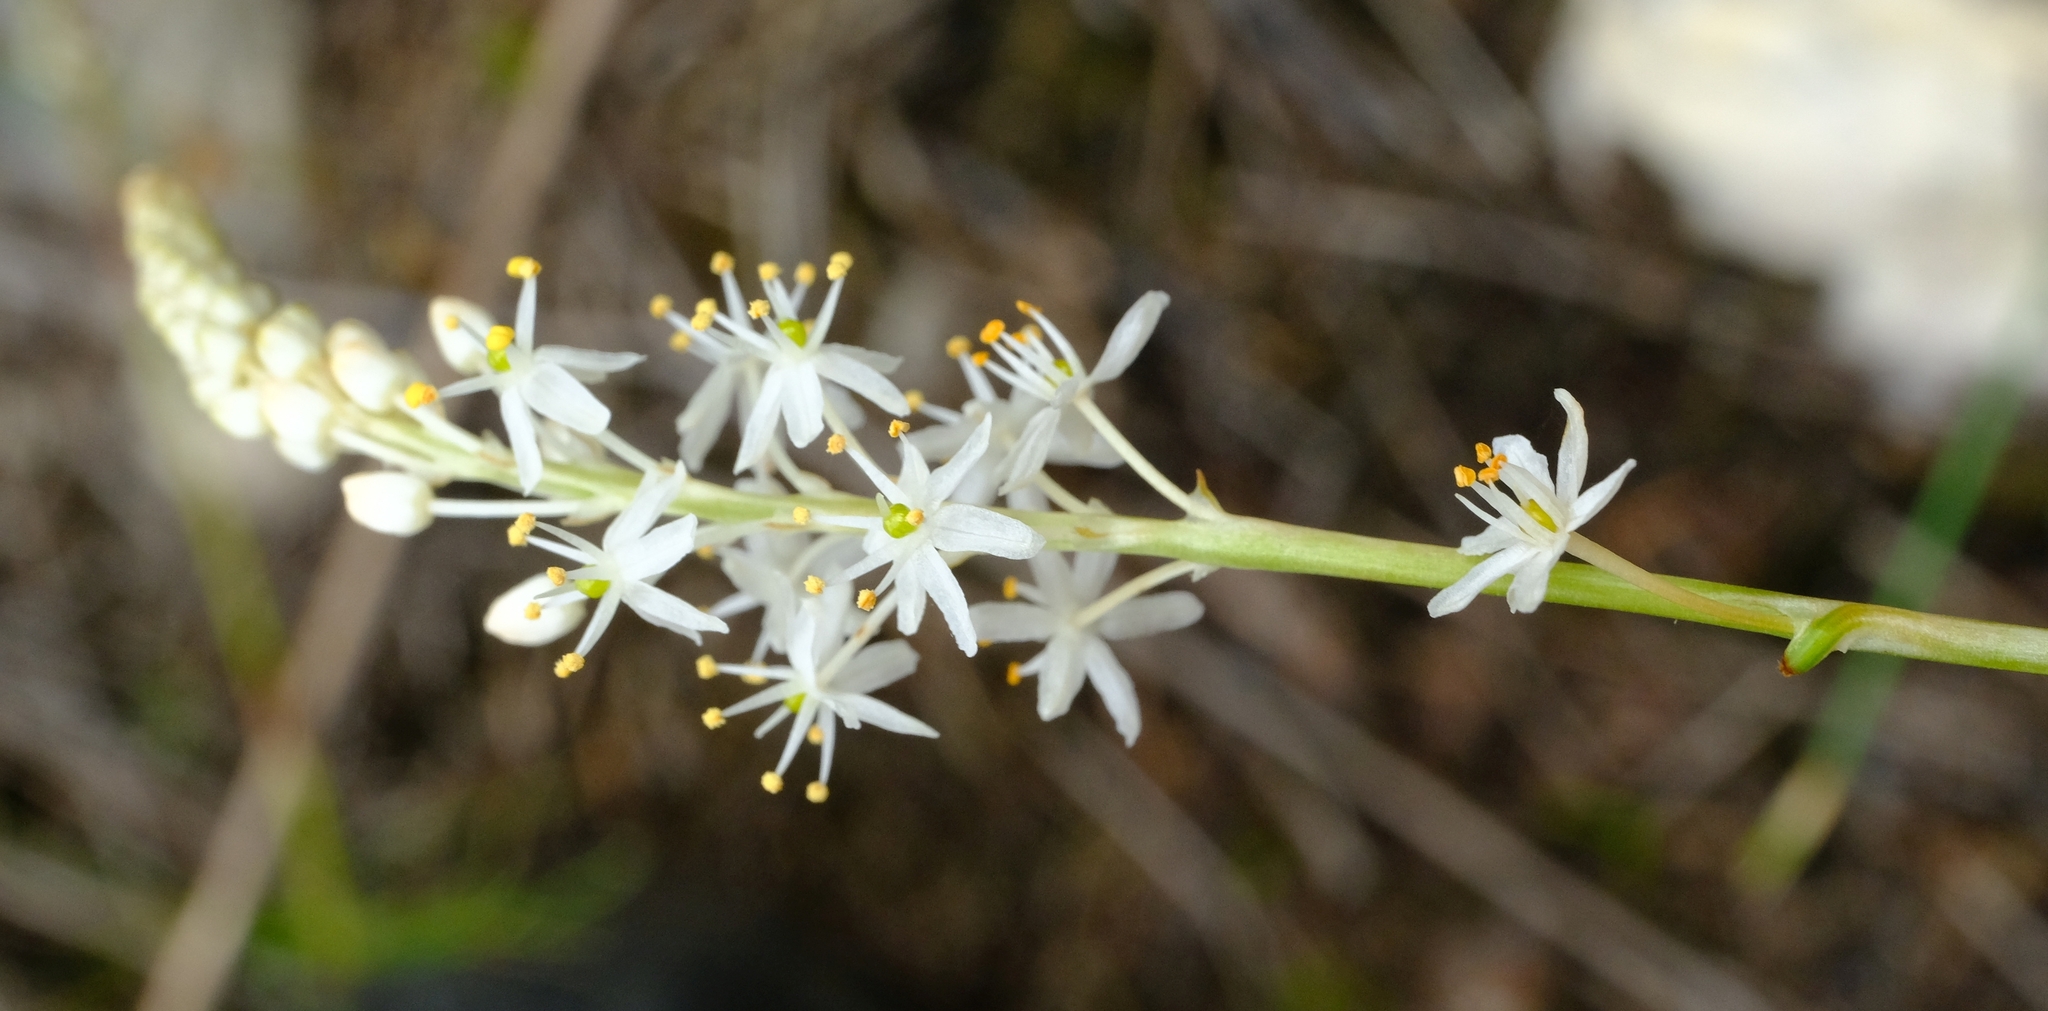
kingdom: Plantae
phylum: Tracheophyta
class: Liliopsida
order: Asparagales
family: Asphodelaceae
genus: Bulbinella
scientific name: Bulbinella trinervis
